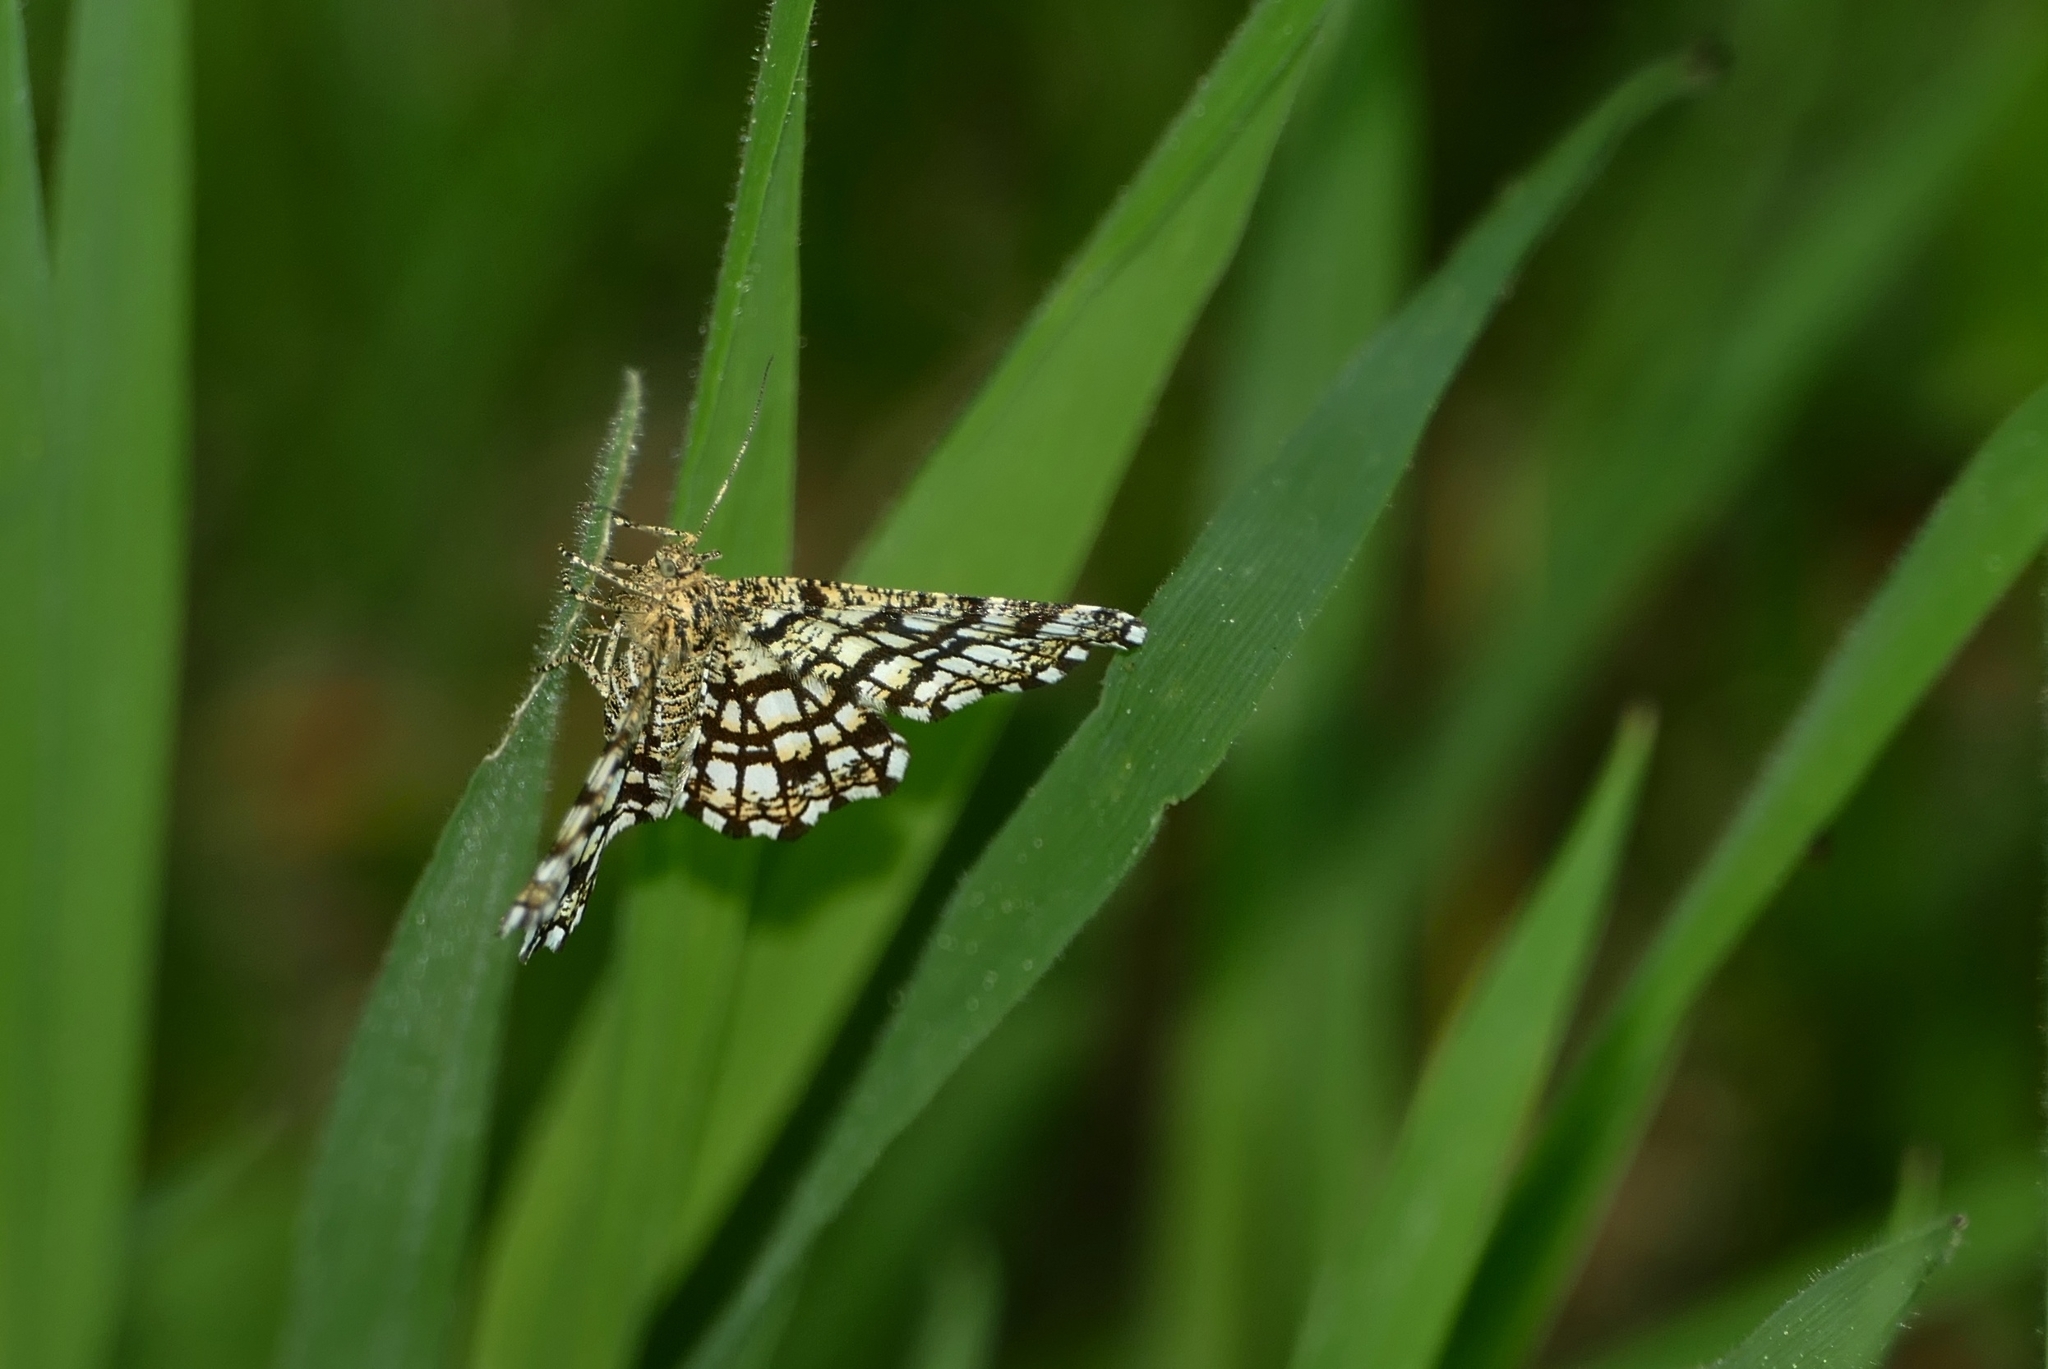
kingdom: Animalia
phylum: Arthropoda
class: Insecta
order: Lepidoptera
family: Geometridae
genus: Chiasmia
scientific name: Chiasmia clathrata
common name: Latticed heath
